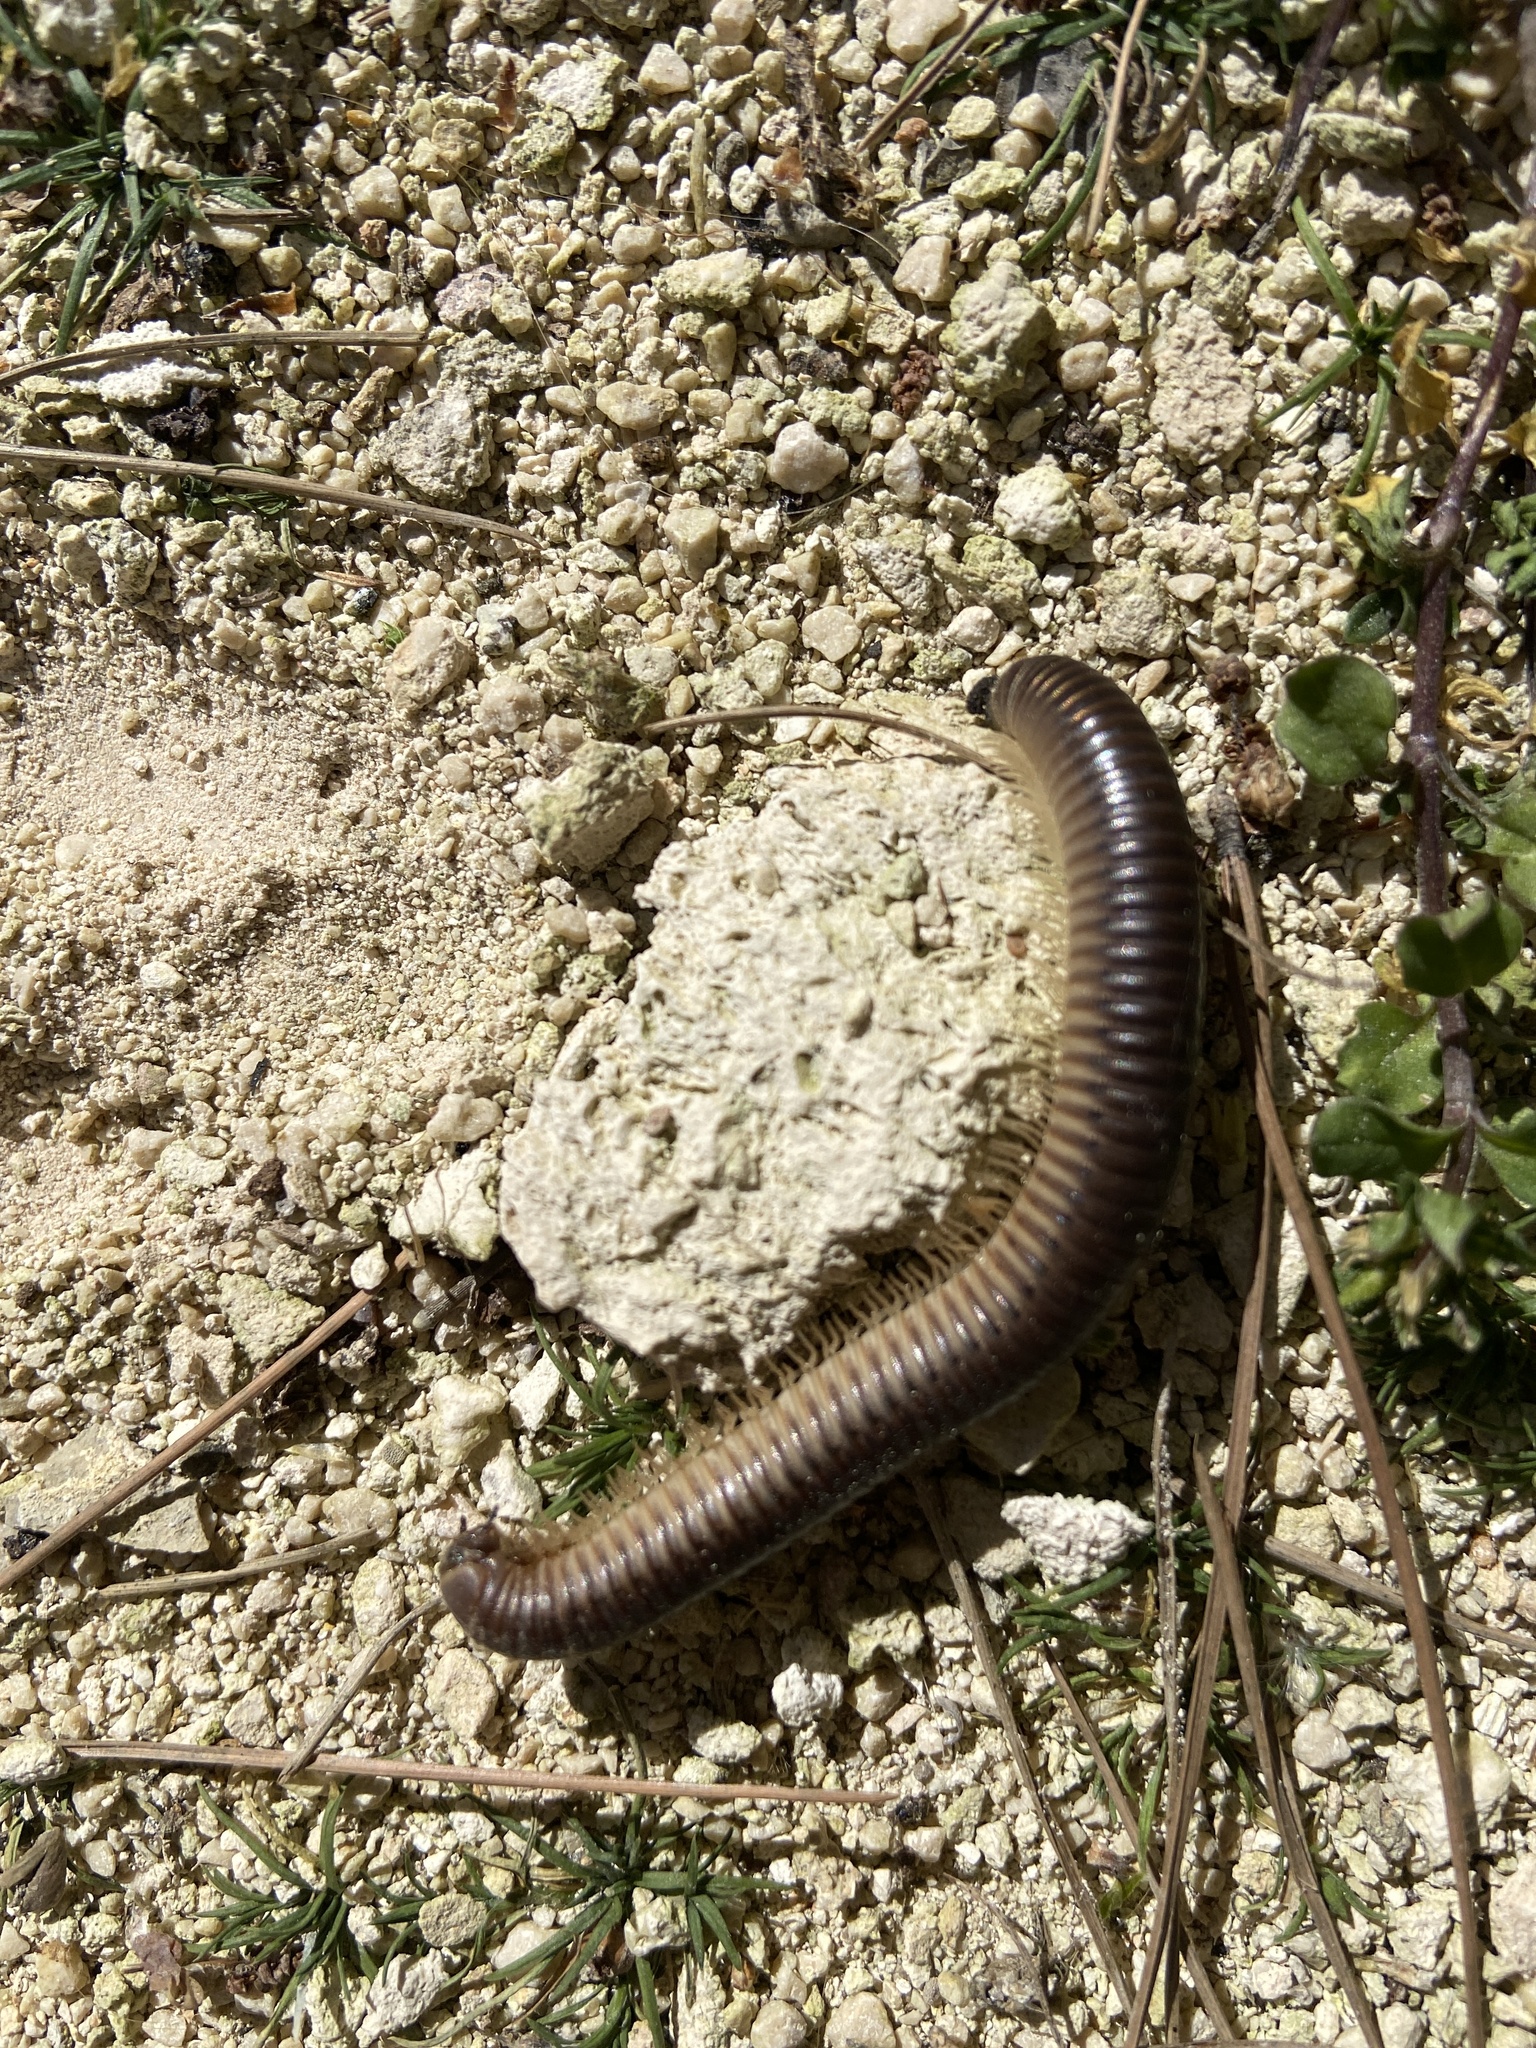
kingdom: Animalia
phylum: Arthropoda
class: Diplopoda
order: Julida
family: Julidae
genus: Pachyiulus
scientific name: Pachyiulus flavipes
